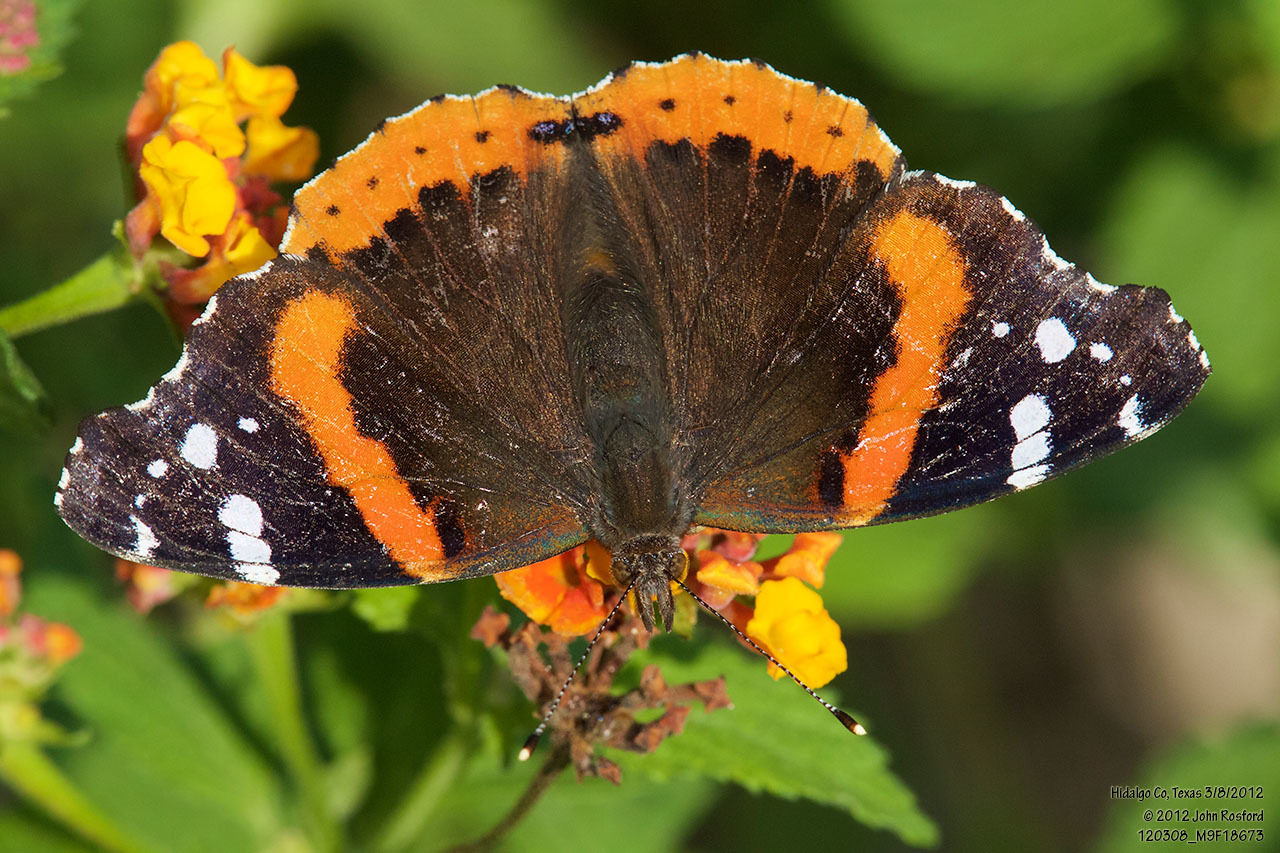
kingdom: Animalia
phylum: Arthropoda
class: Insecta
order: Lepidoptera
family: Nymphalidae
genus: Vanessa
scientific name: Vanessa atalanta
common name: Red admiral
